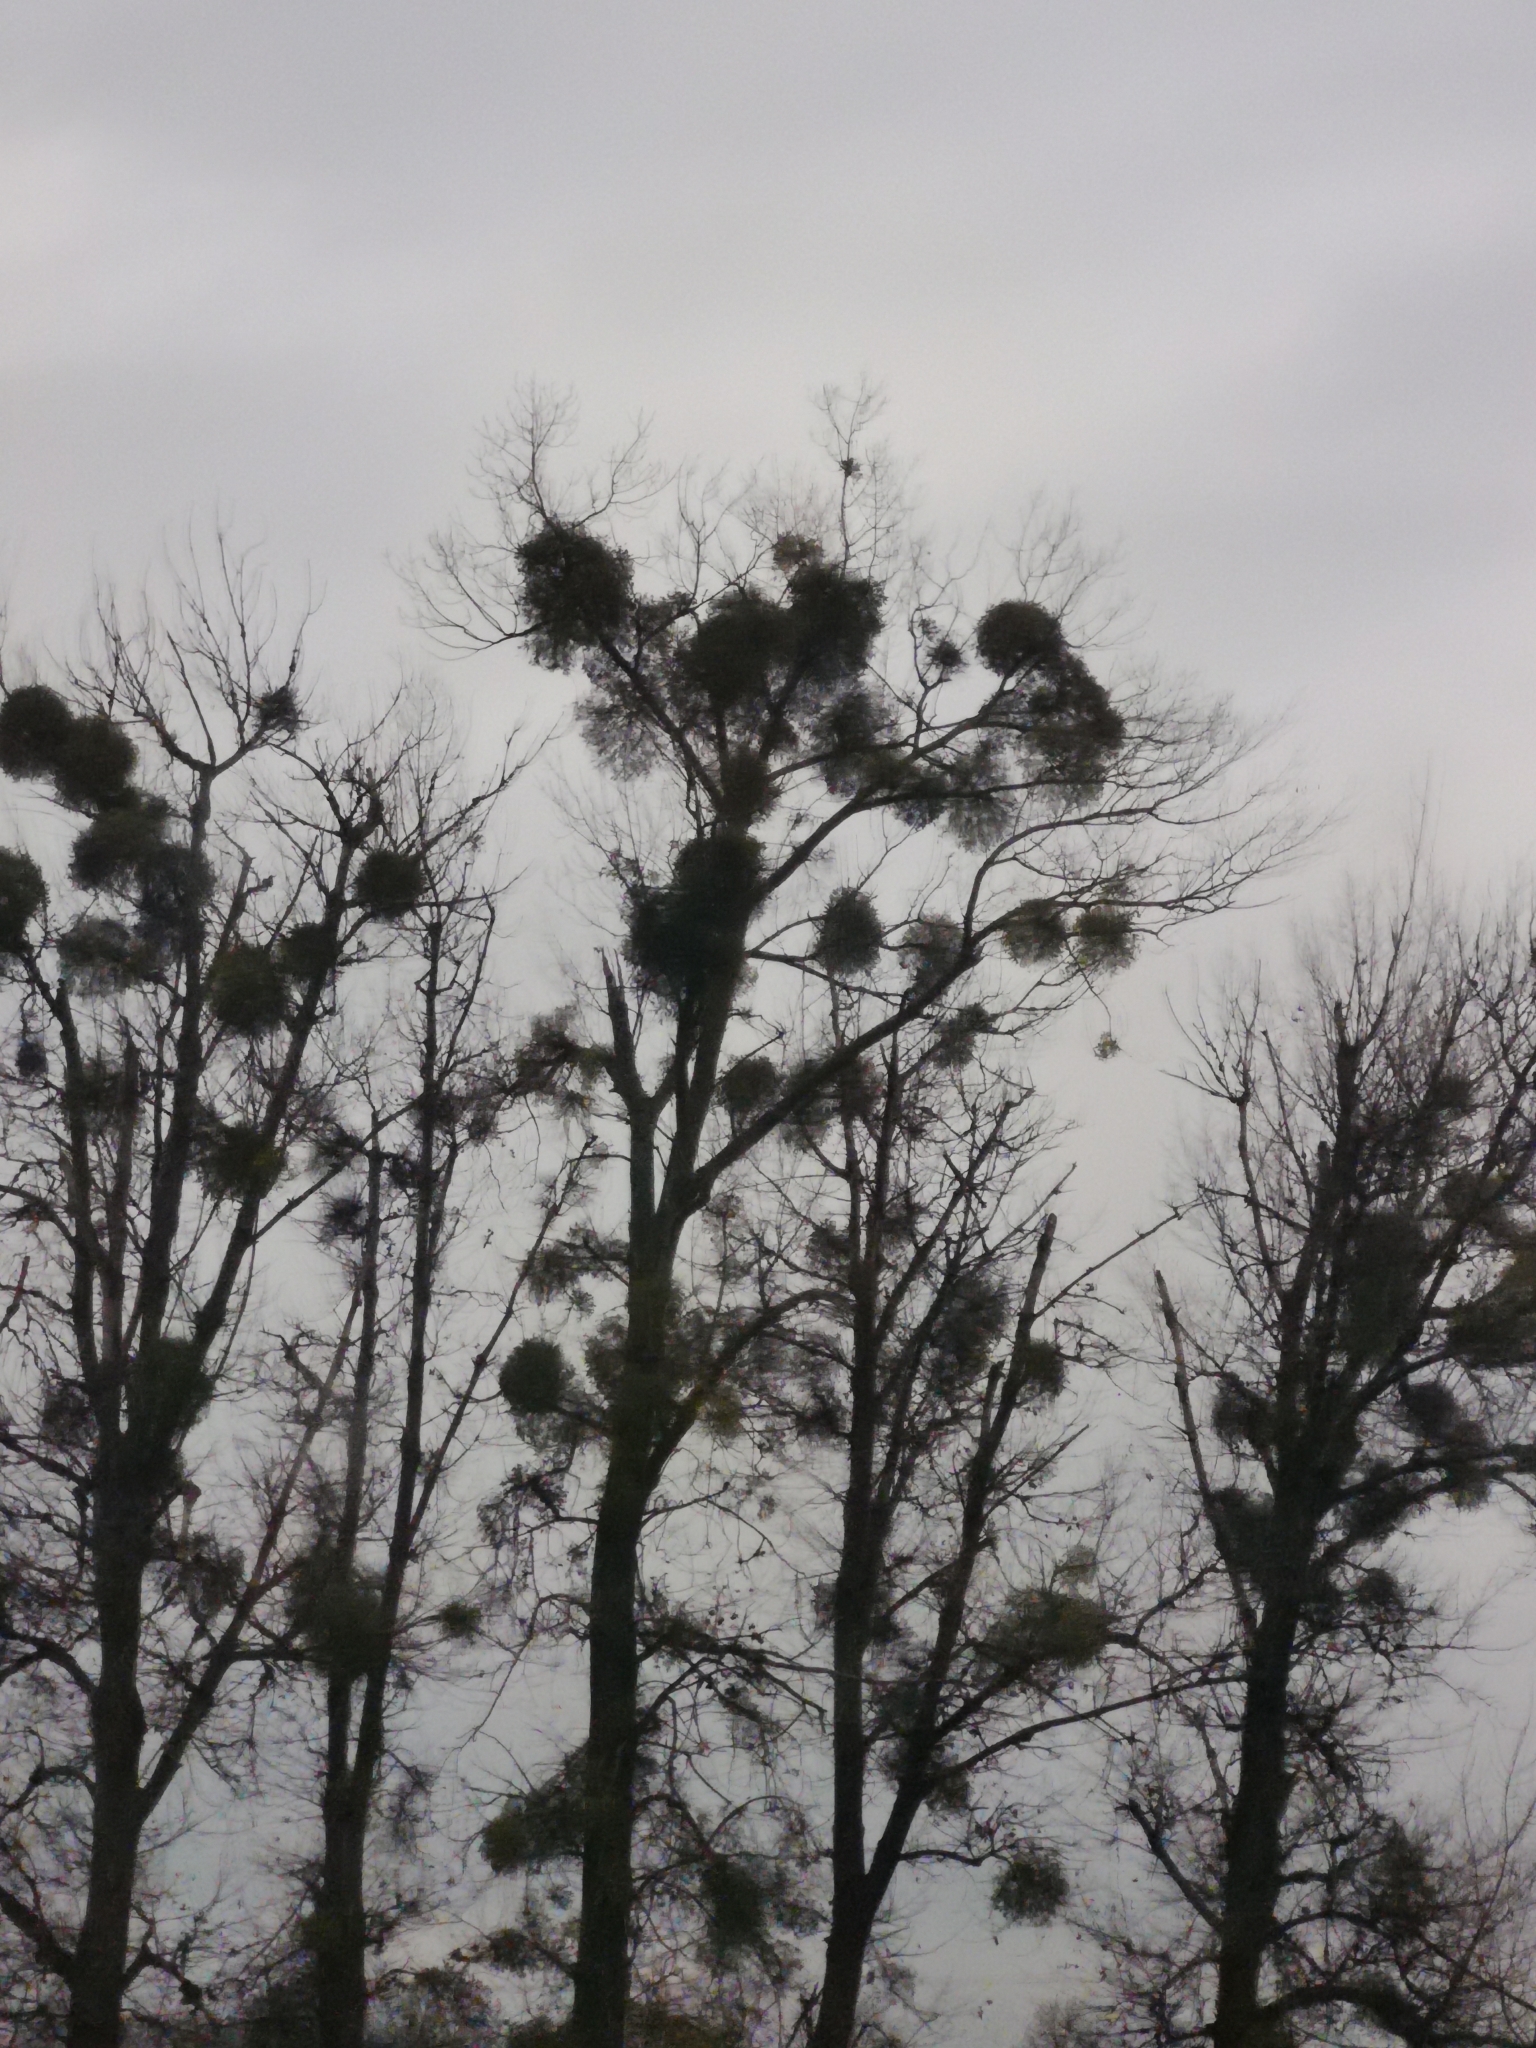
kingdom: Plantae
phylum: Tracheophyta
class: Magnoliopsida
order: Santalales
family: Viscaceae
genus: Viscum
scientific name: Viscum album
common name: Mistletoe
